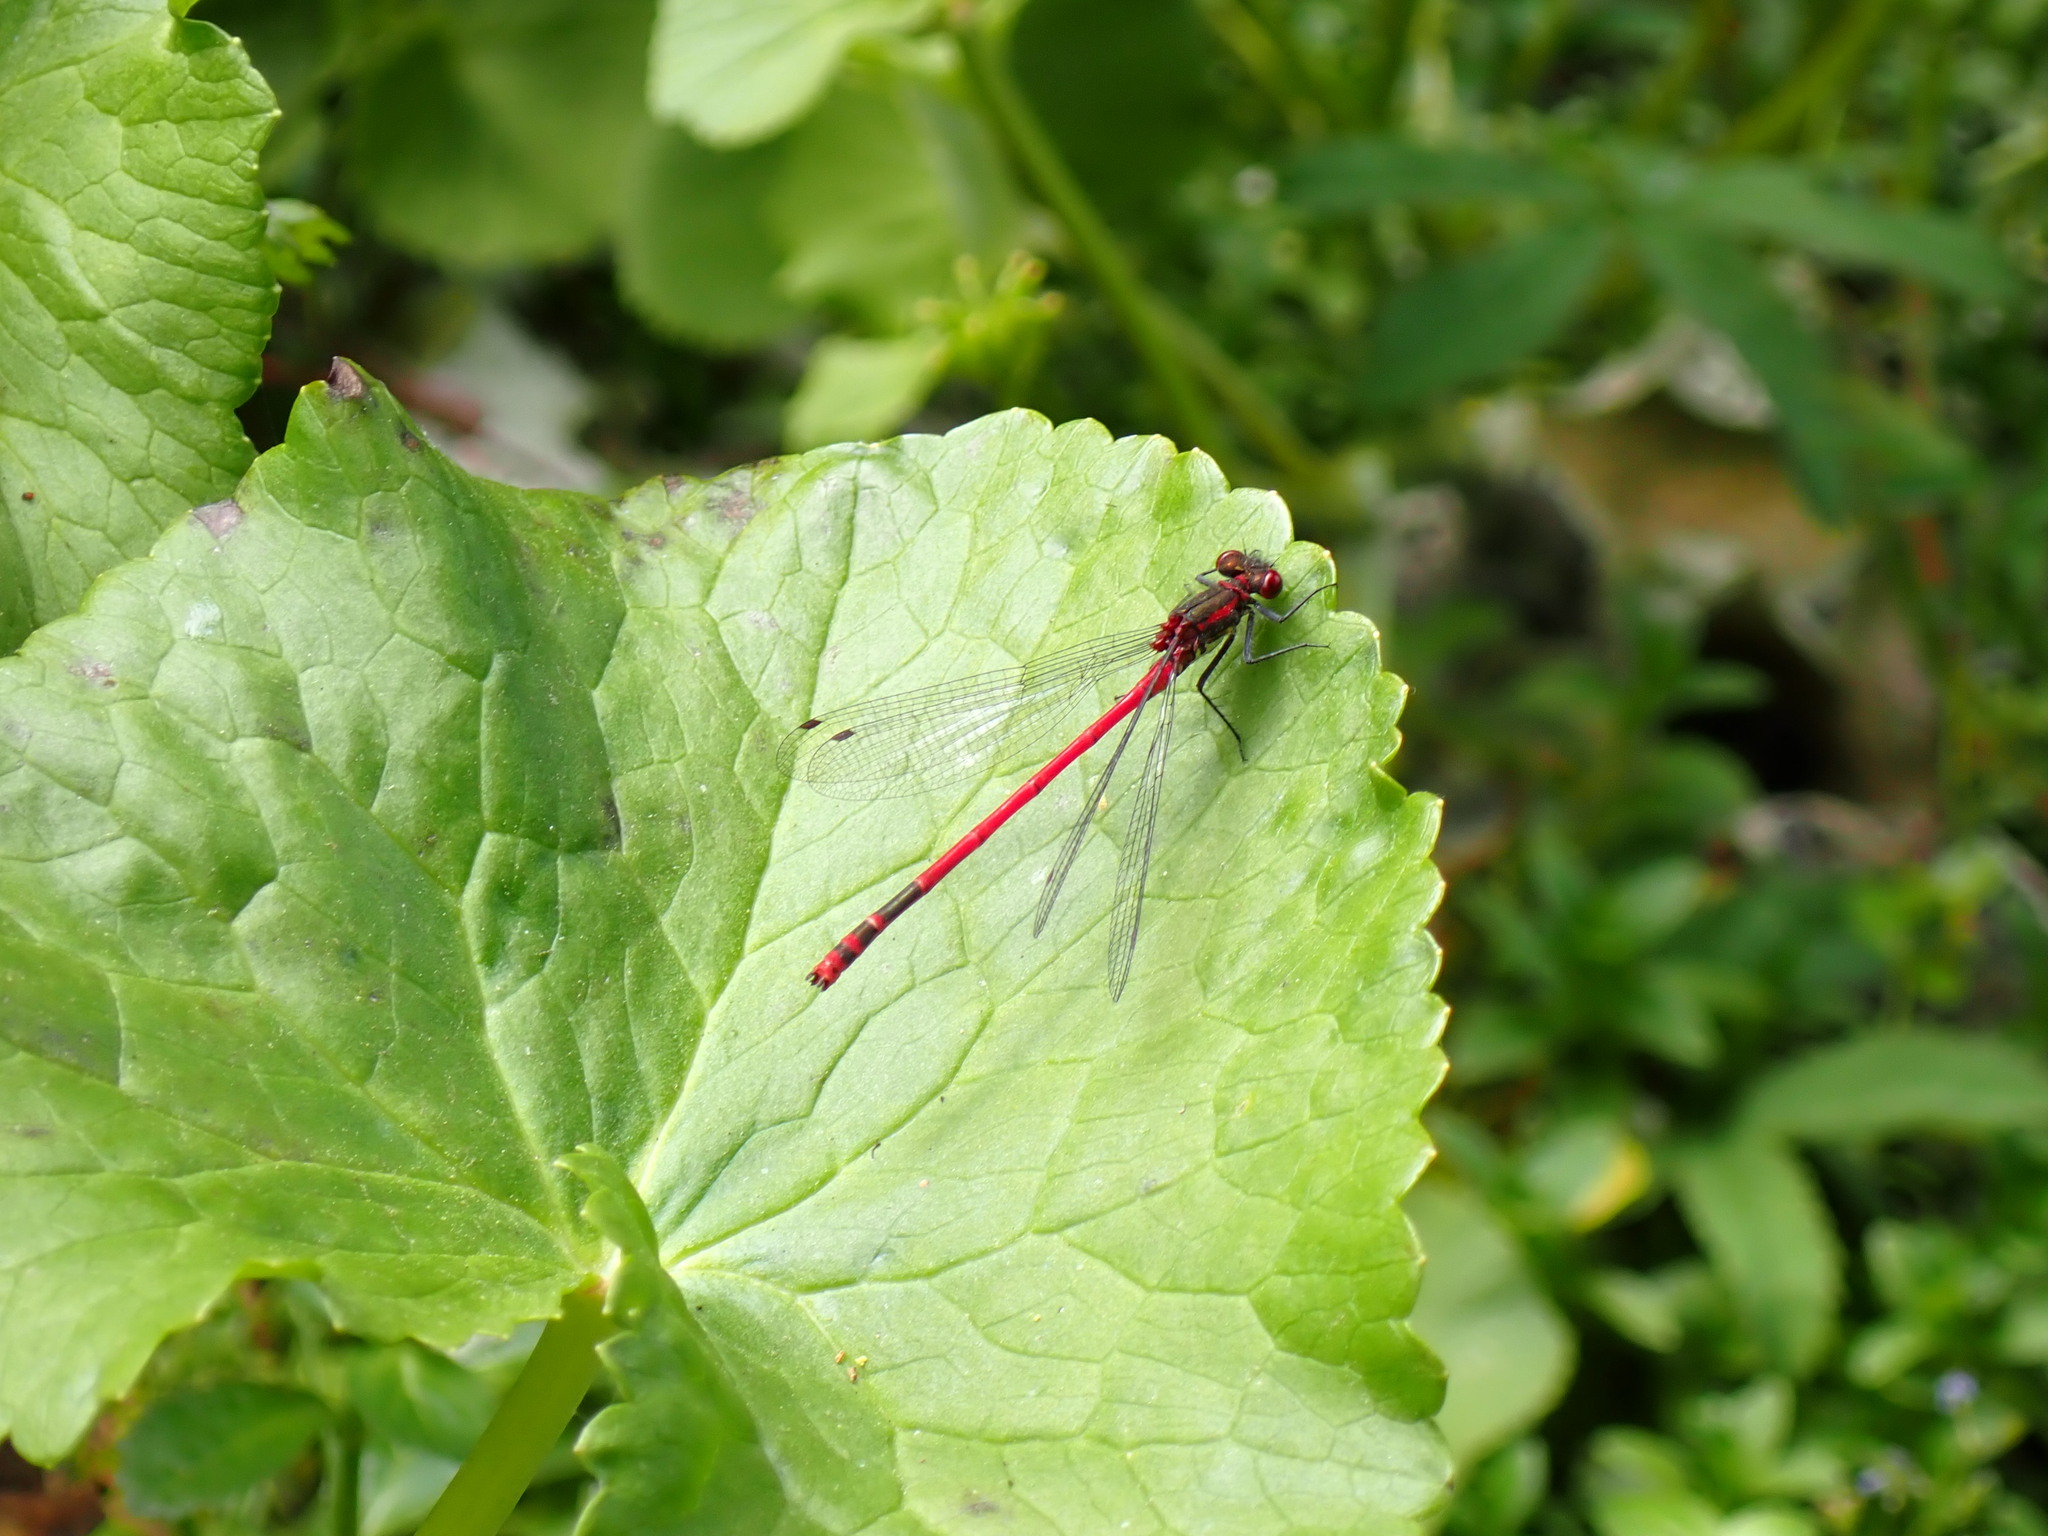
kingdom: Animalia
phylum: Arthropoda
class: Insecta
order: Odonata
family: Coenagrionidae
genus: Pyrrhosoma
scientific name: Pyrrhosoma nymphula
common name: Large red damsel
